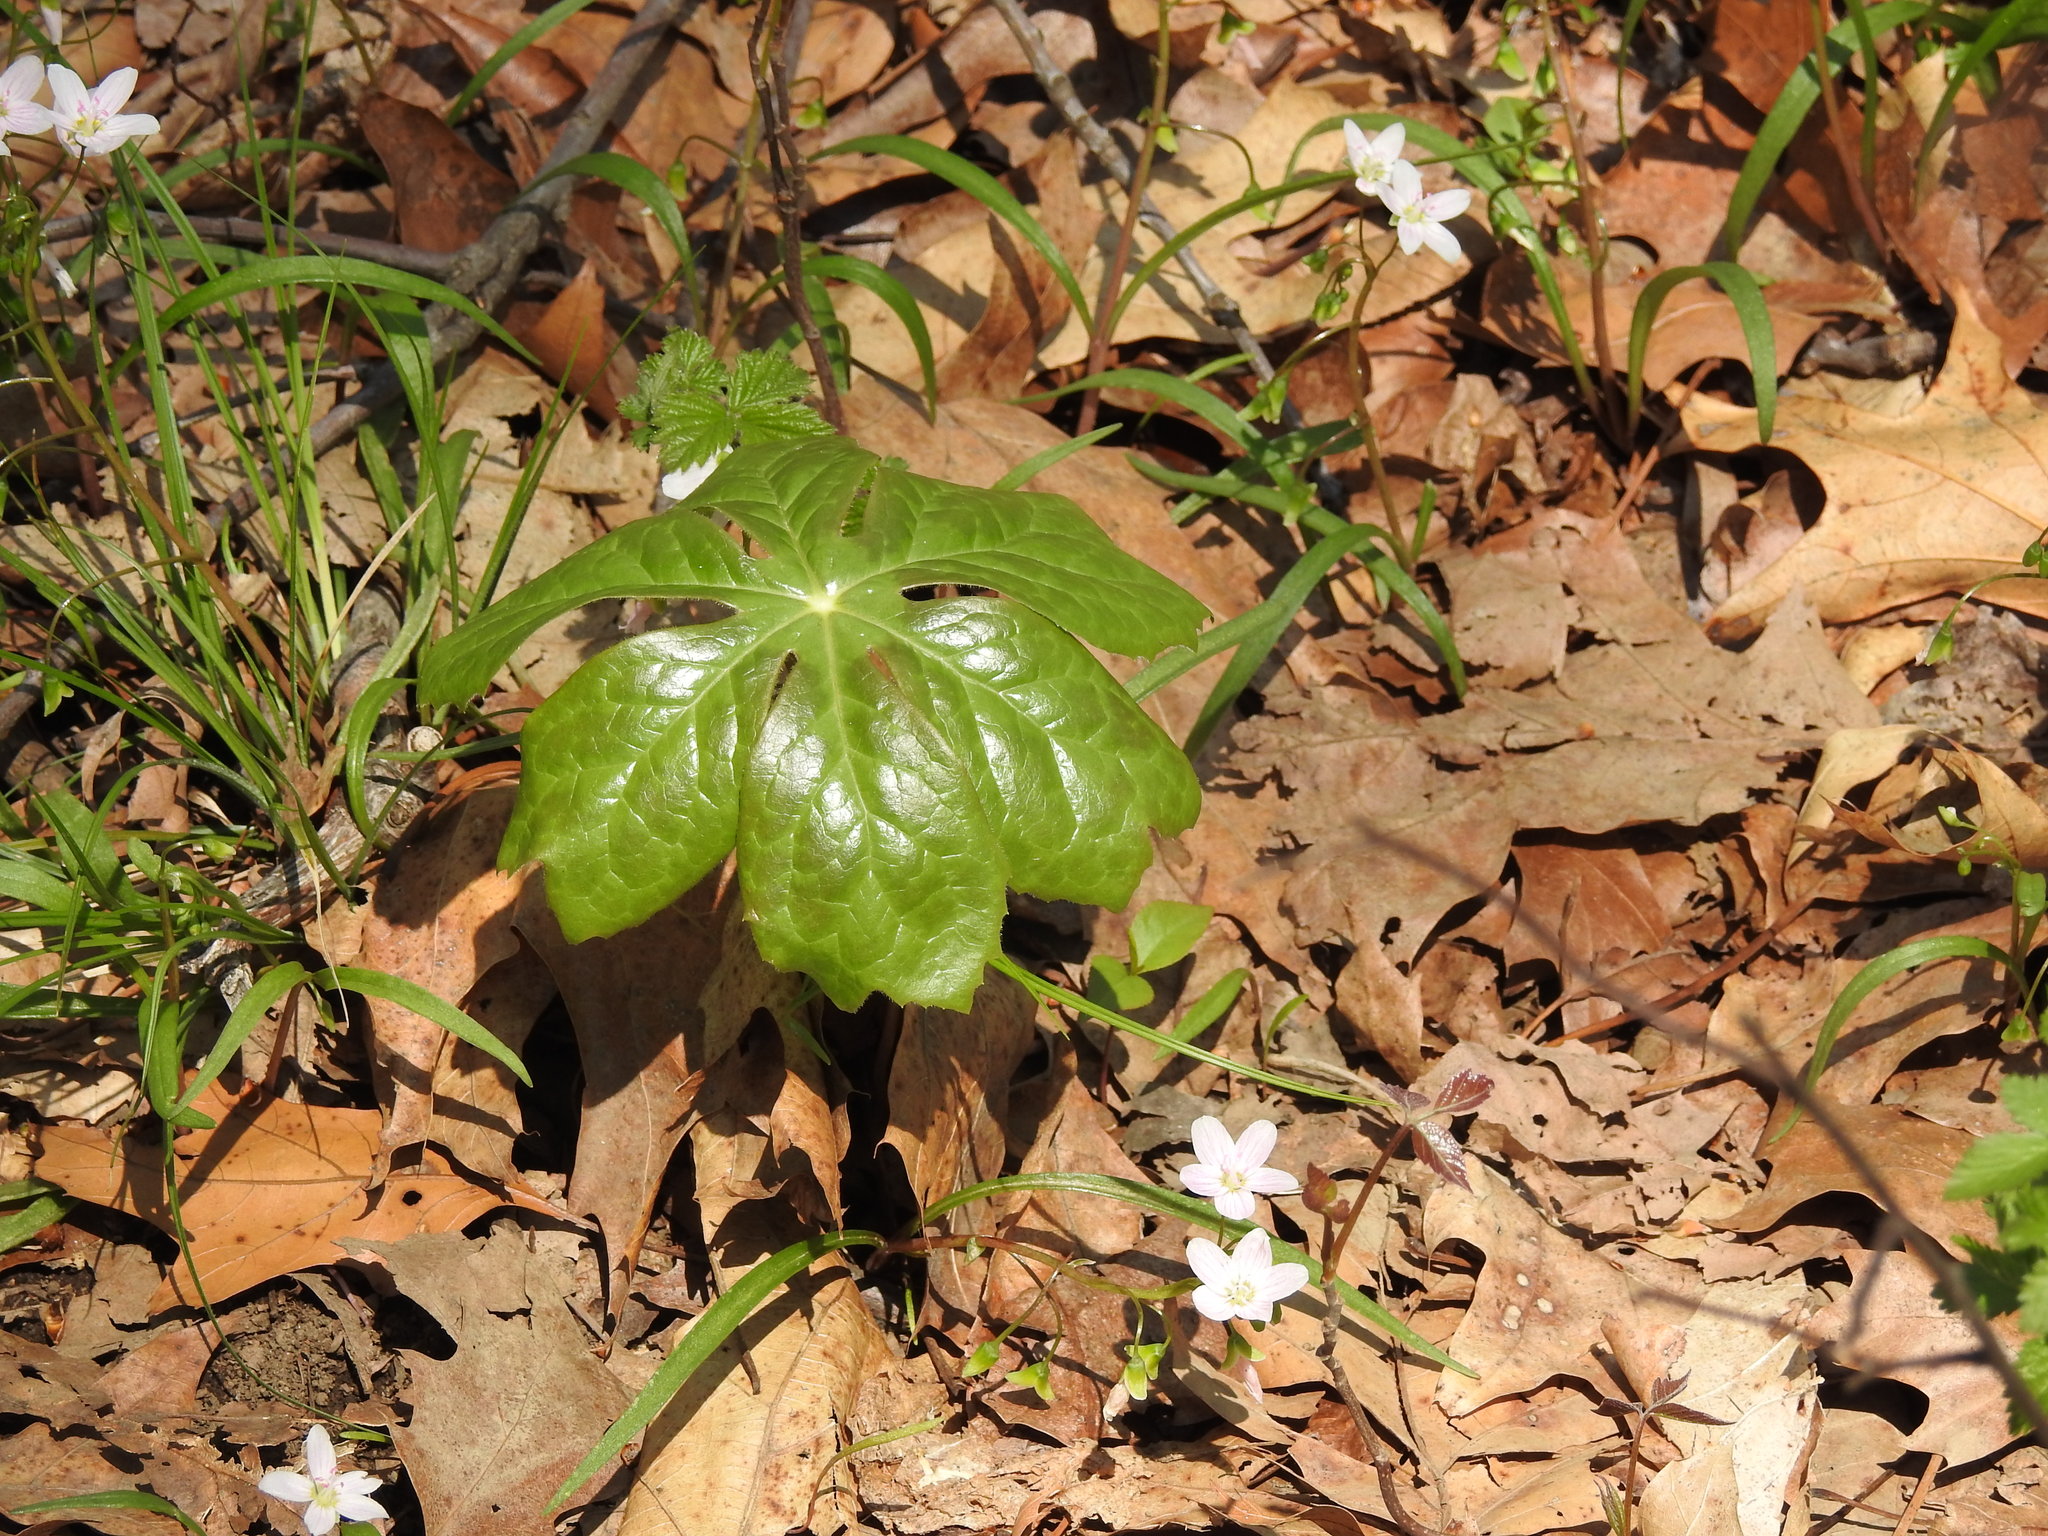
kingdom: Plantae
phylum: Tracheophyta
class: Magnoliopsida
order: Ranunculales
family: Berberidaceae
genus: Podophyllum
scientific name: Podophyllum peltatum
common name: Wild mandrake
